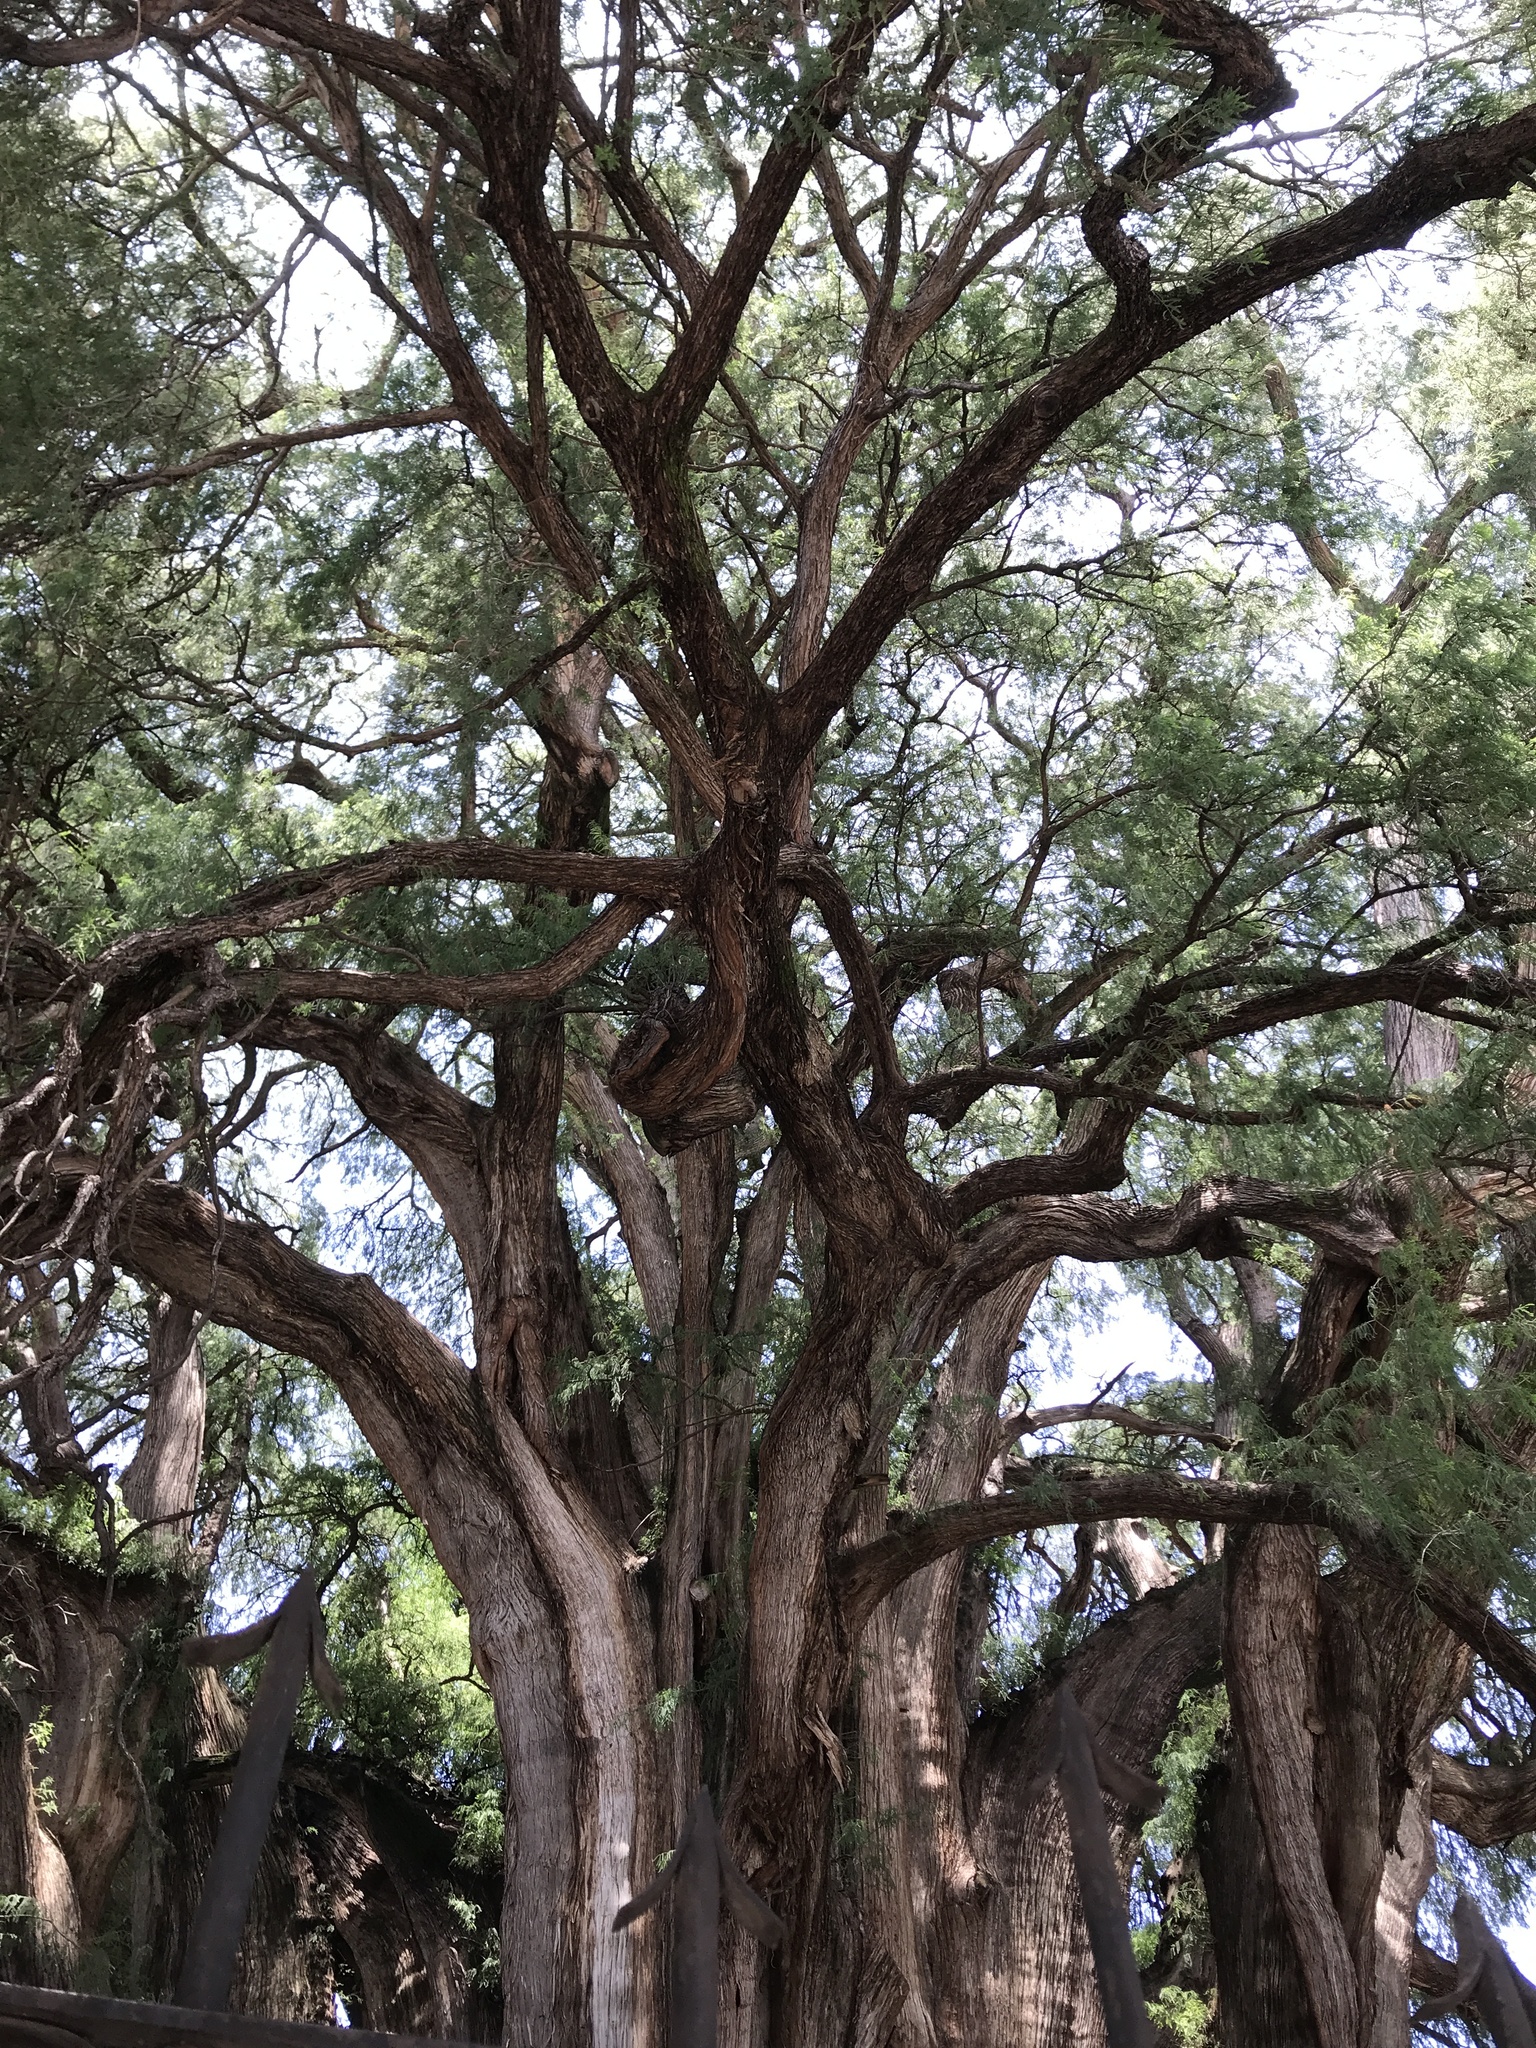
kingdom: Plantae
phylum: Tracheophyta
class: Pinopsida
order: Pinales
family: Cupressaceae
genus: Taxodium
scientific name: Taxodium mucronatum
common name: Montezume bald cypress
